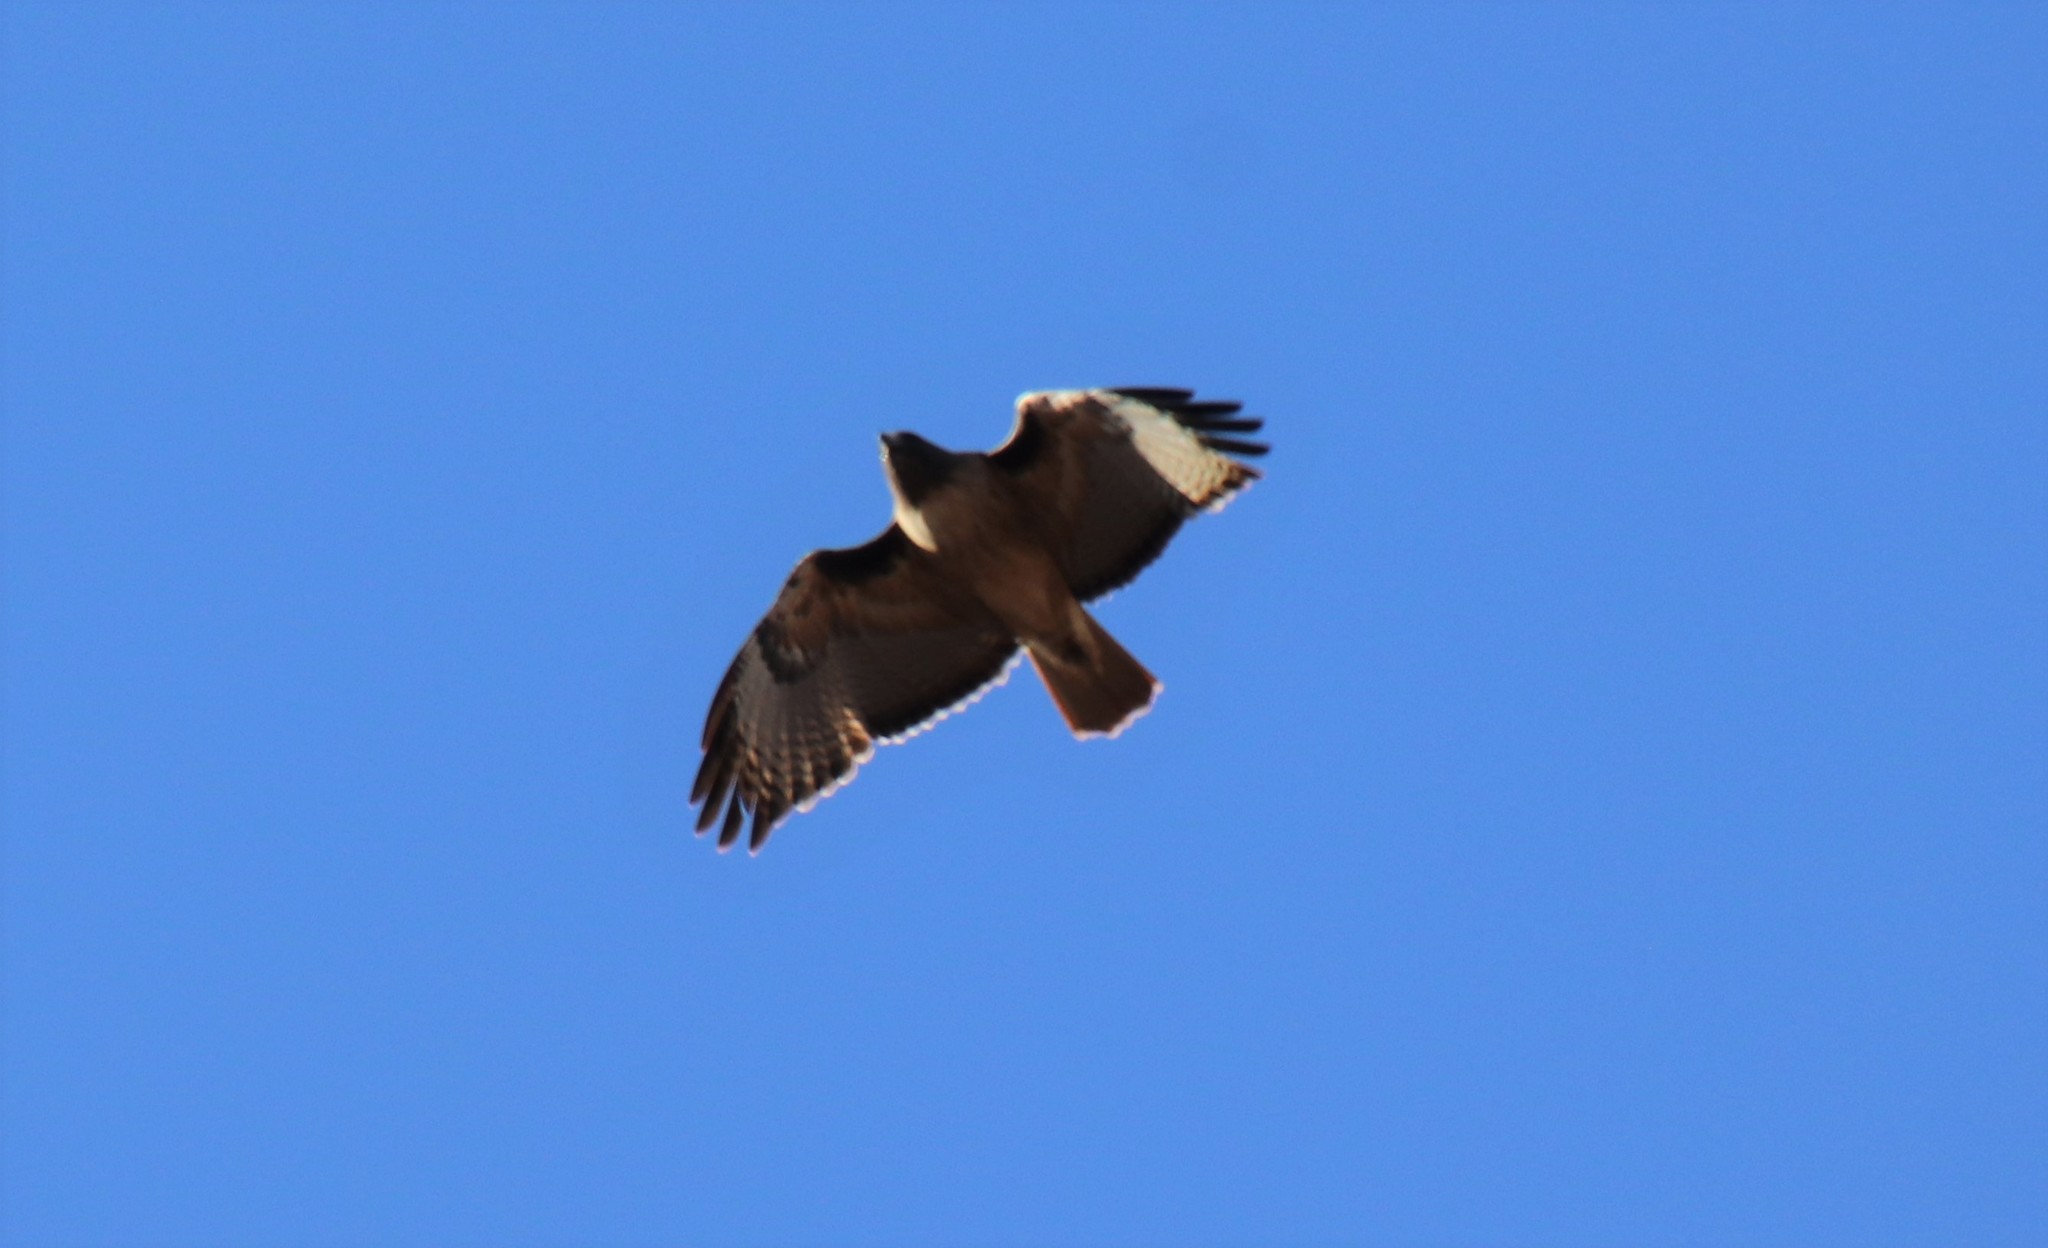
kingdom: Animalia
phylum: Chordata
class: Aves
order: Accipitriformes
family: Accipitridae
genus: Buteo
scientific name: Buteo jamaicensis
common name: Red-tailed hawk
